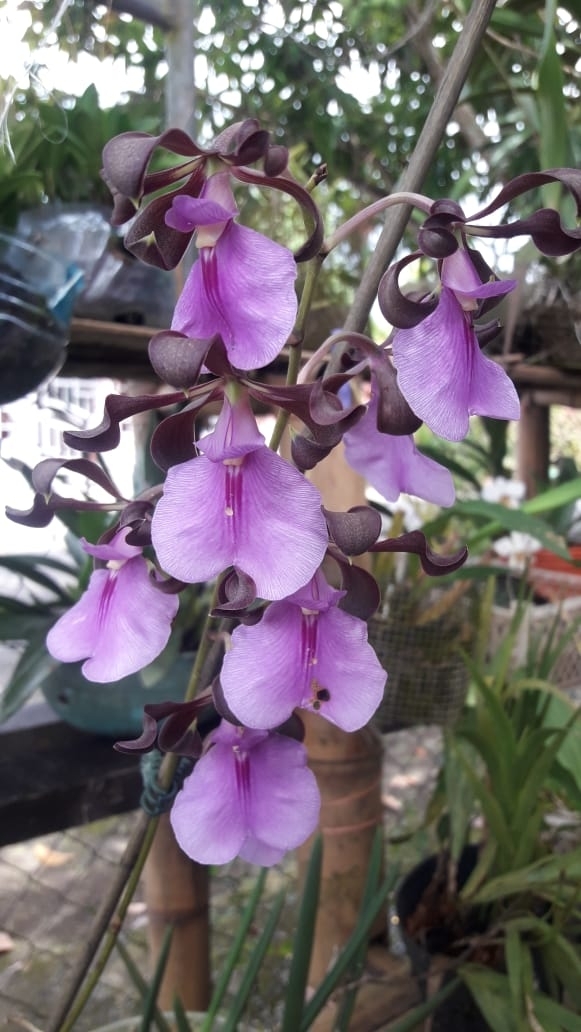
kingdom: Plantae
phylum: Tracheophyta
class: Liliopsida
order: Asparagales
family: Orchidaceae
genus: Encyclia
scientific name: Encyclia cordigera
